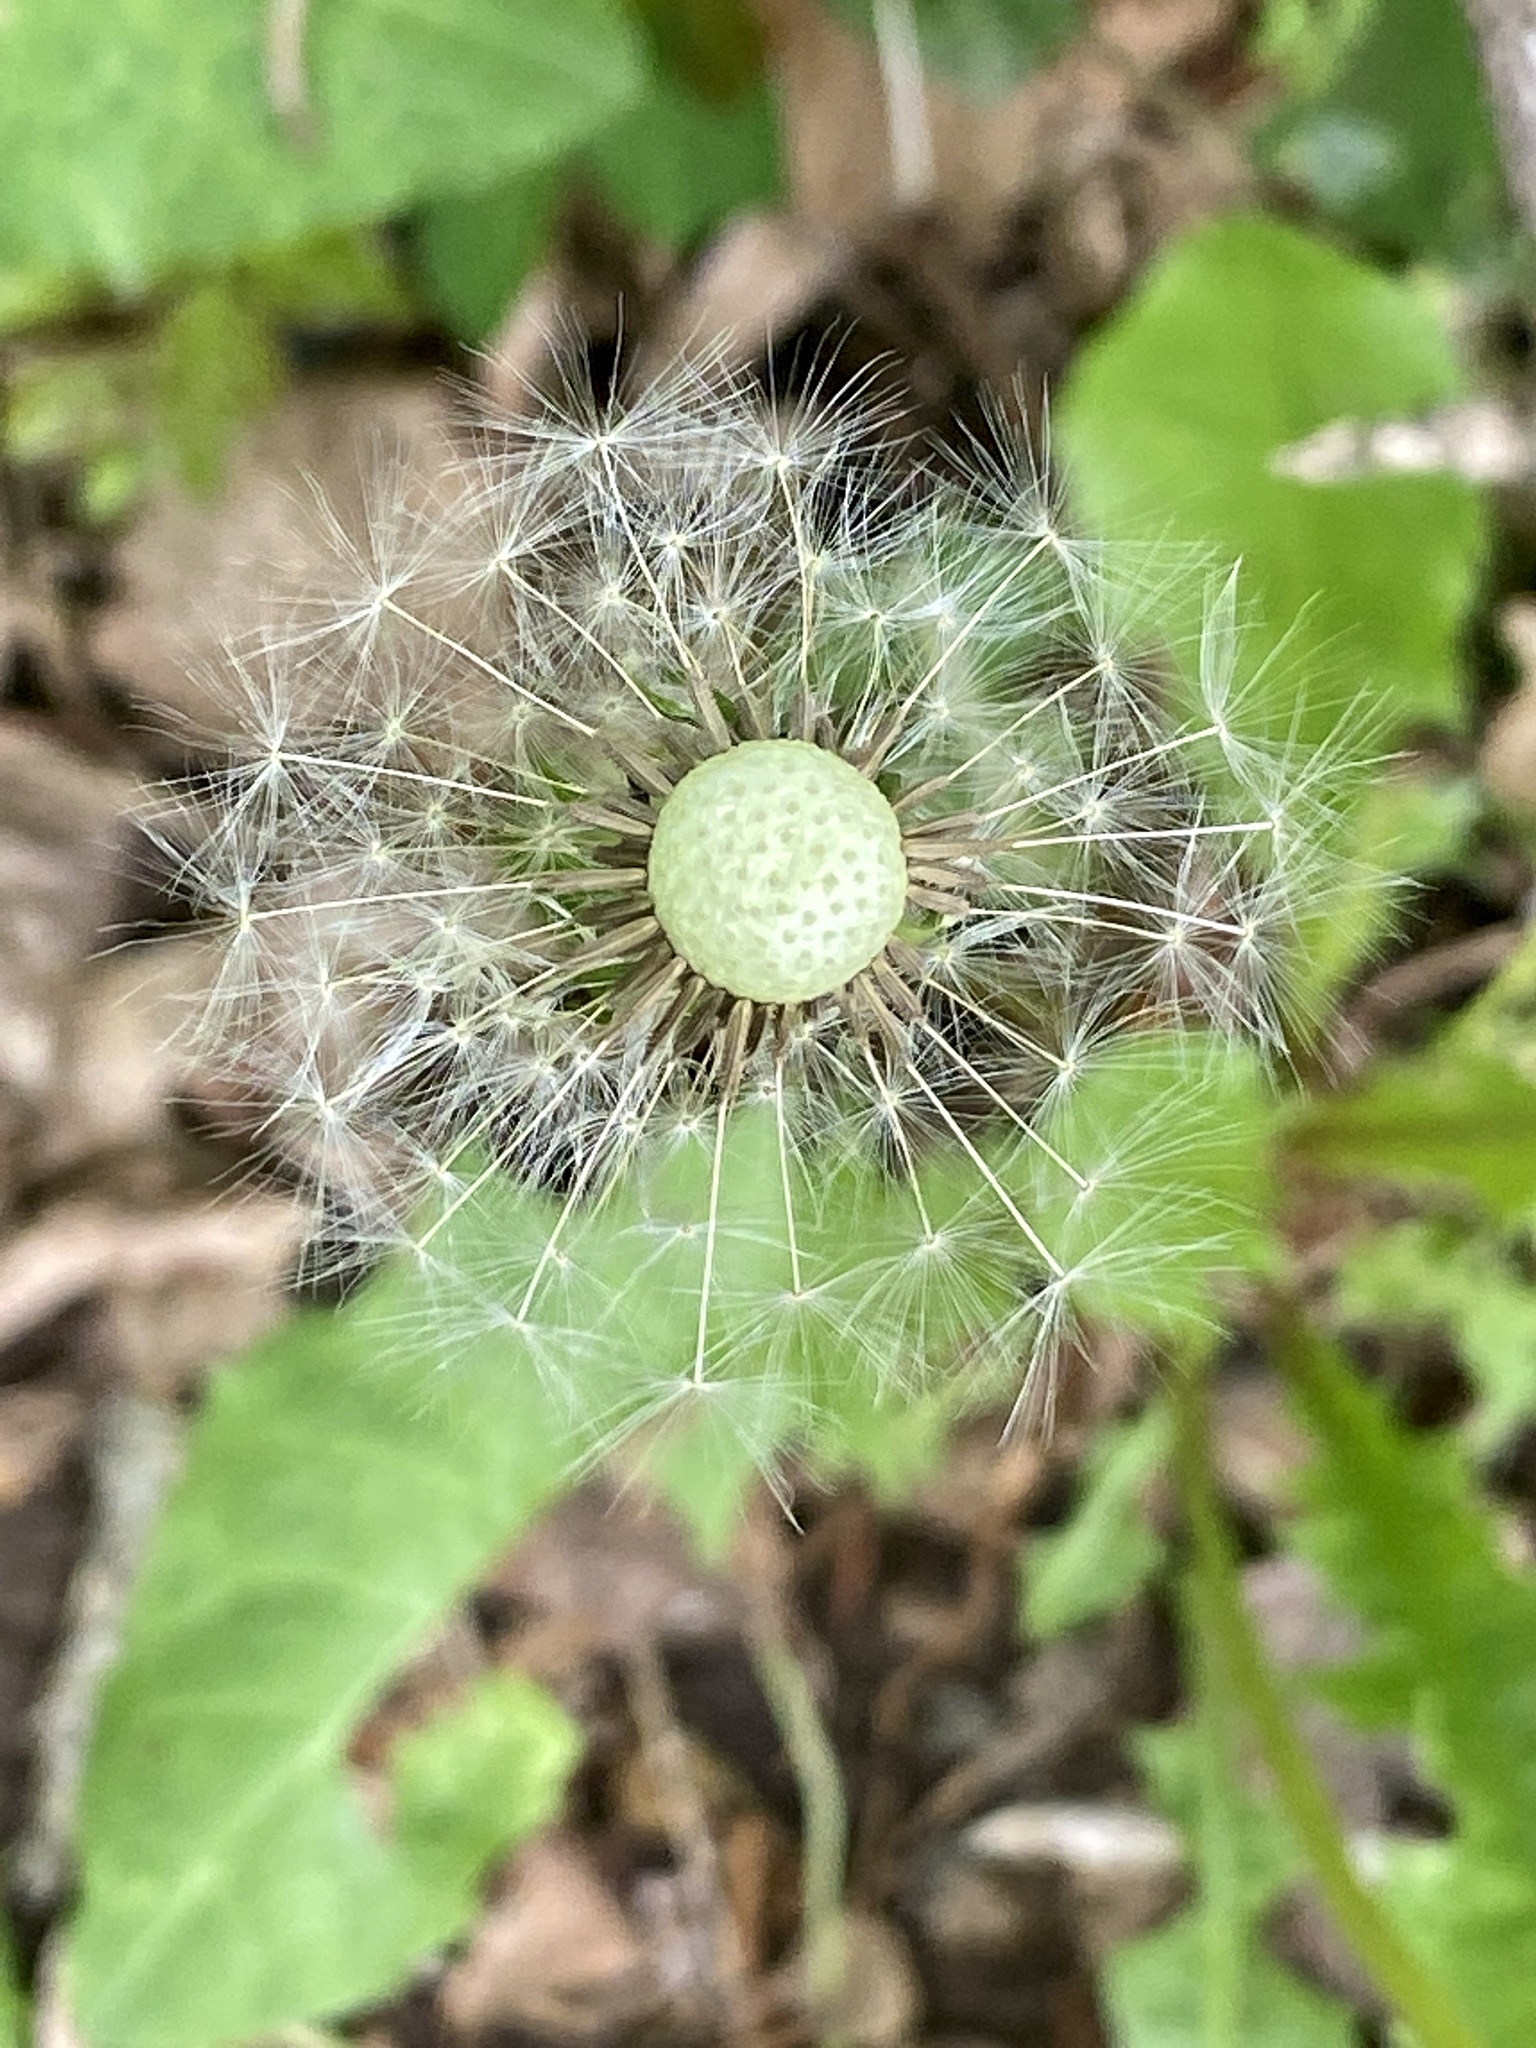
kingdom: Plantae
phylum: Tracheophyta
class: Magnoliopsida
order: Asterales
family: Asteraceae
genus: Taraxacum
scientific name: Taraxacum officinale
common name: Common dandelion
